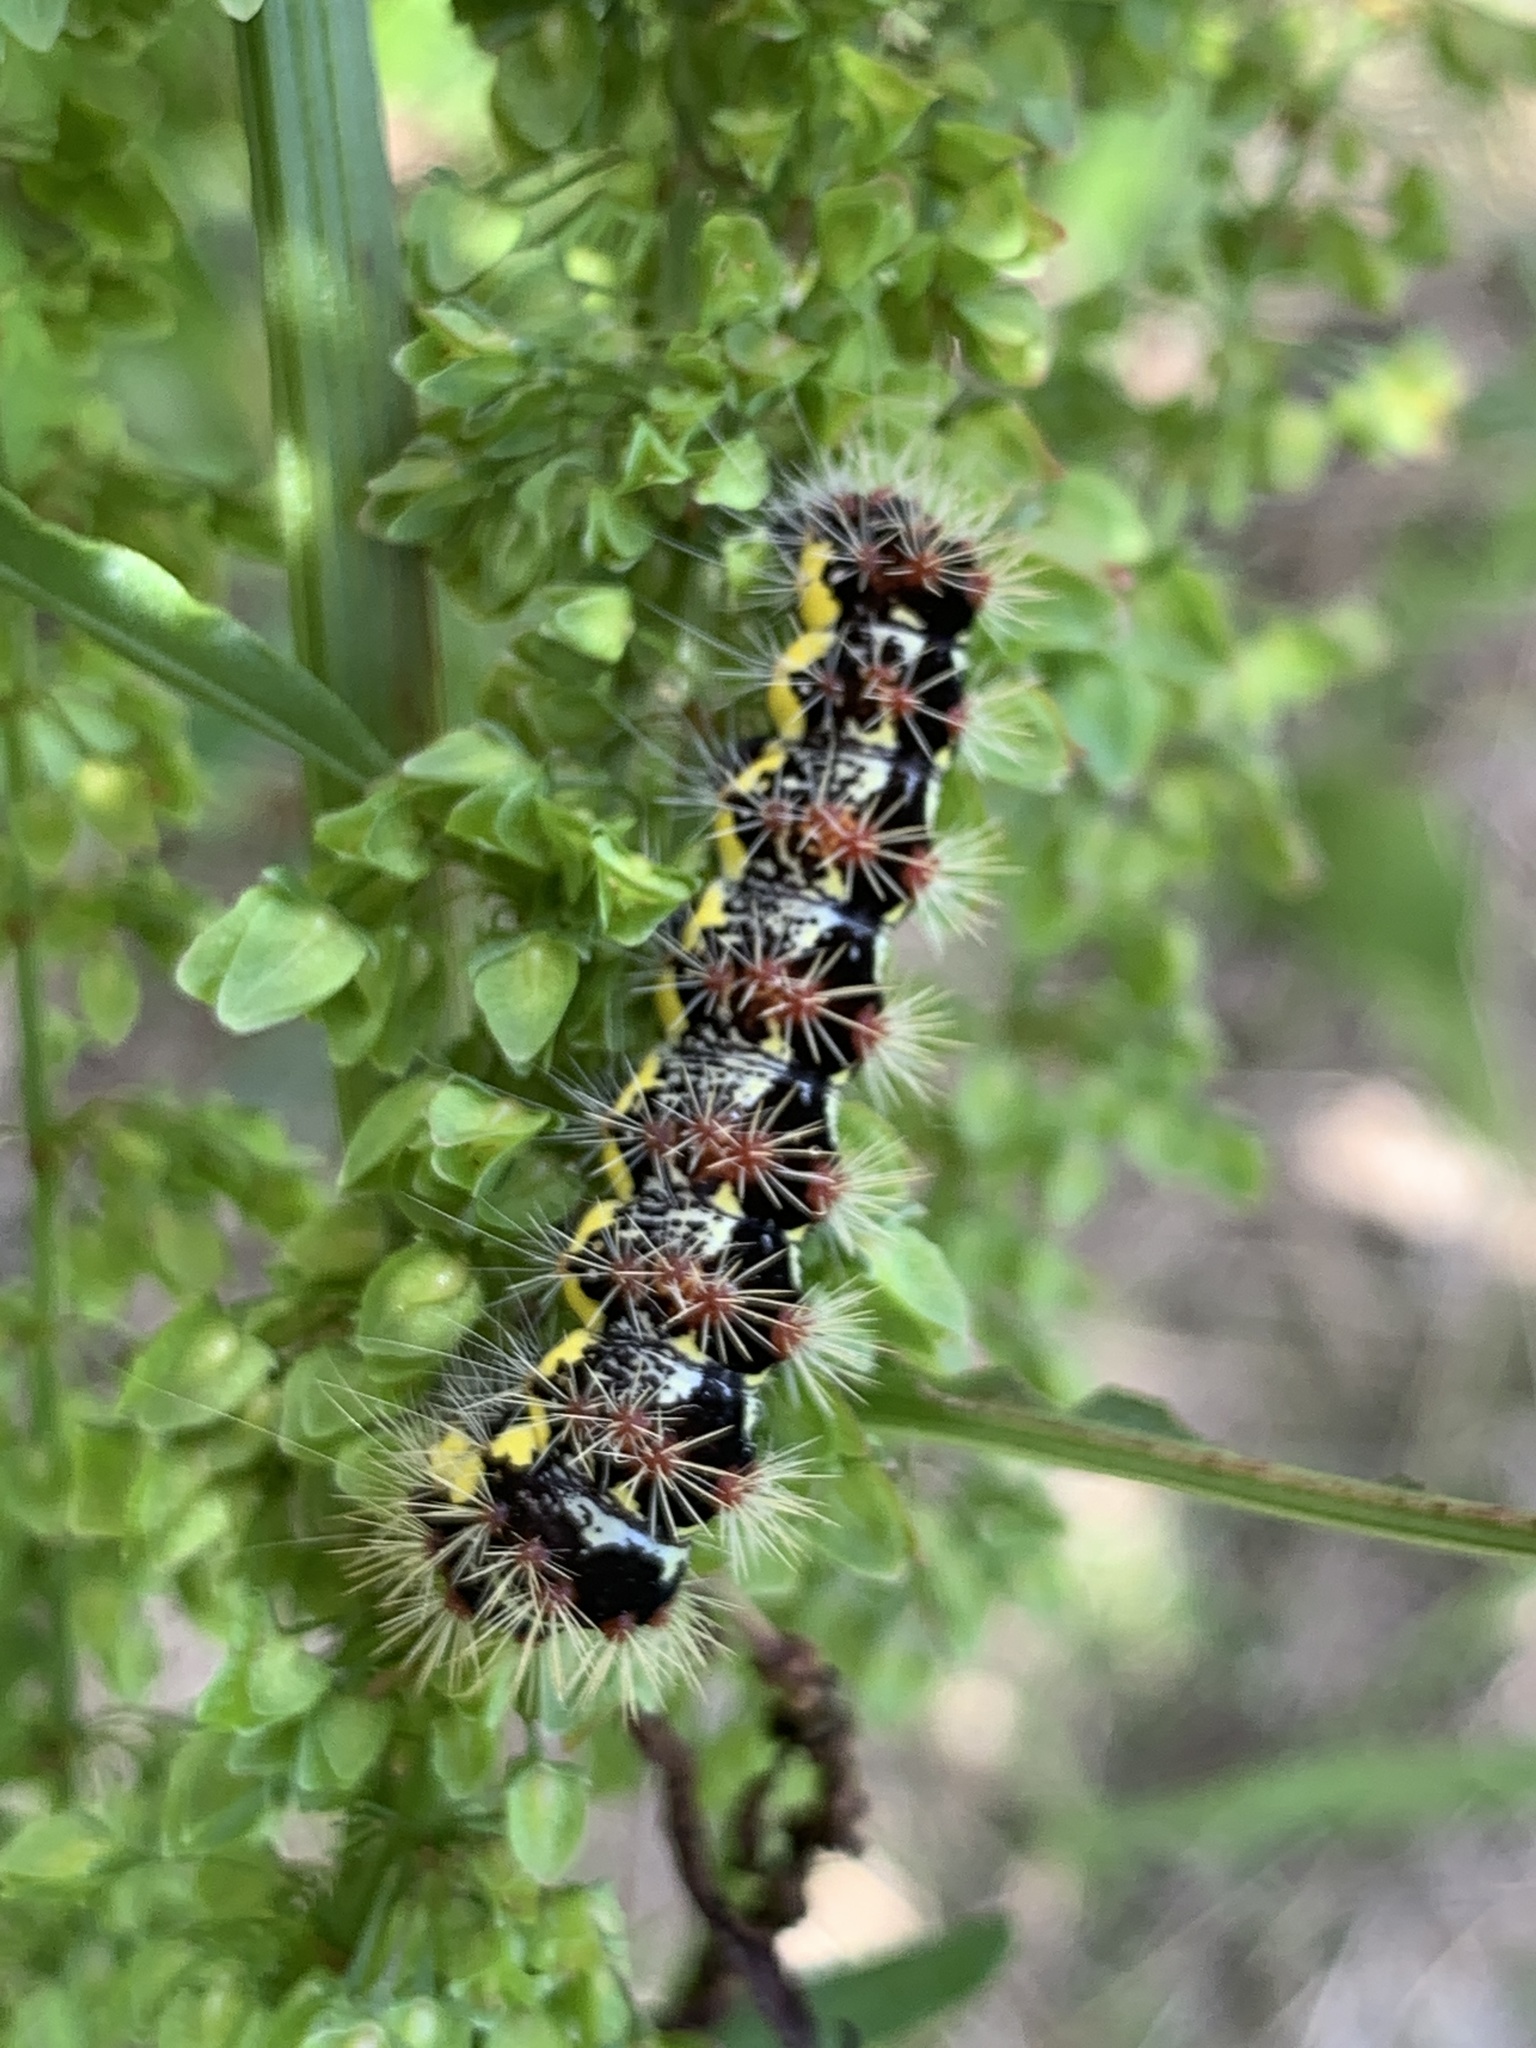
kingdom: Animalia
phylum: Arthropoda
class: Insecta
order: Lepidoptera
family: Noctuidae
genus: Acronicta
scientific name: Acronicta oblinita
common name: Smeared dagger
